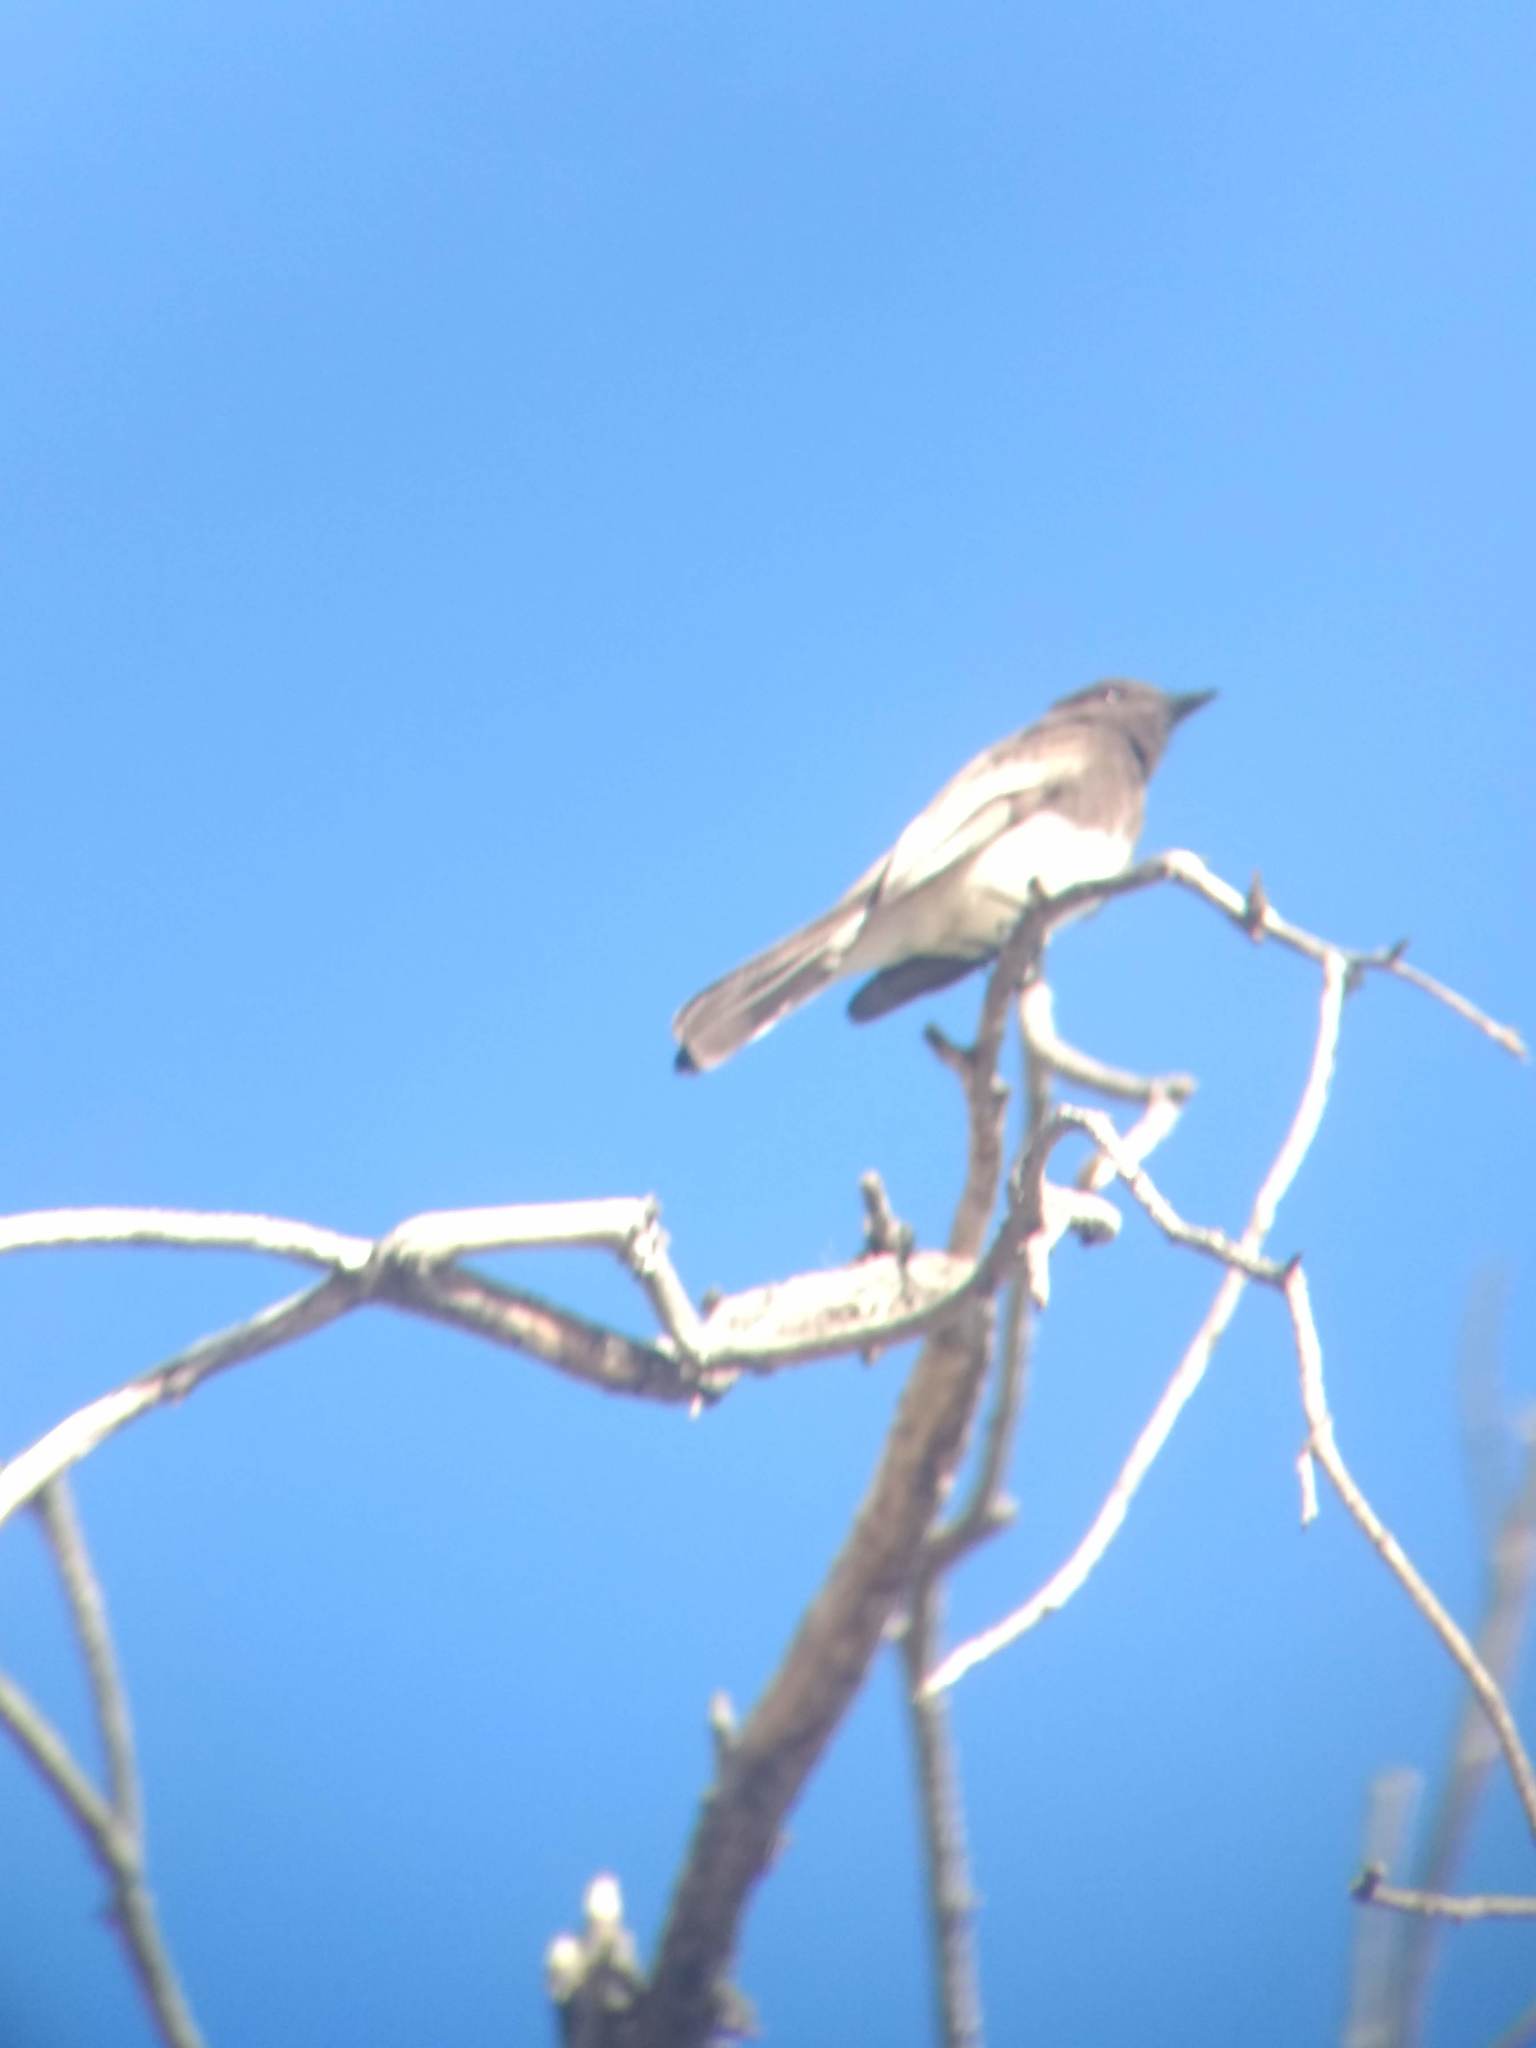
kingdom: Animalia
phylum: Chordata
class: Aves
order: Passeriformes
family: Tyrannidae
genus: Sayornis
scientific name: Sayornis nigricans
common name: Black phoebe
